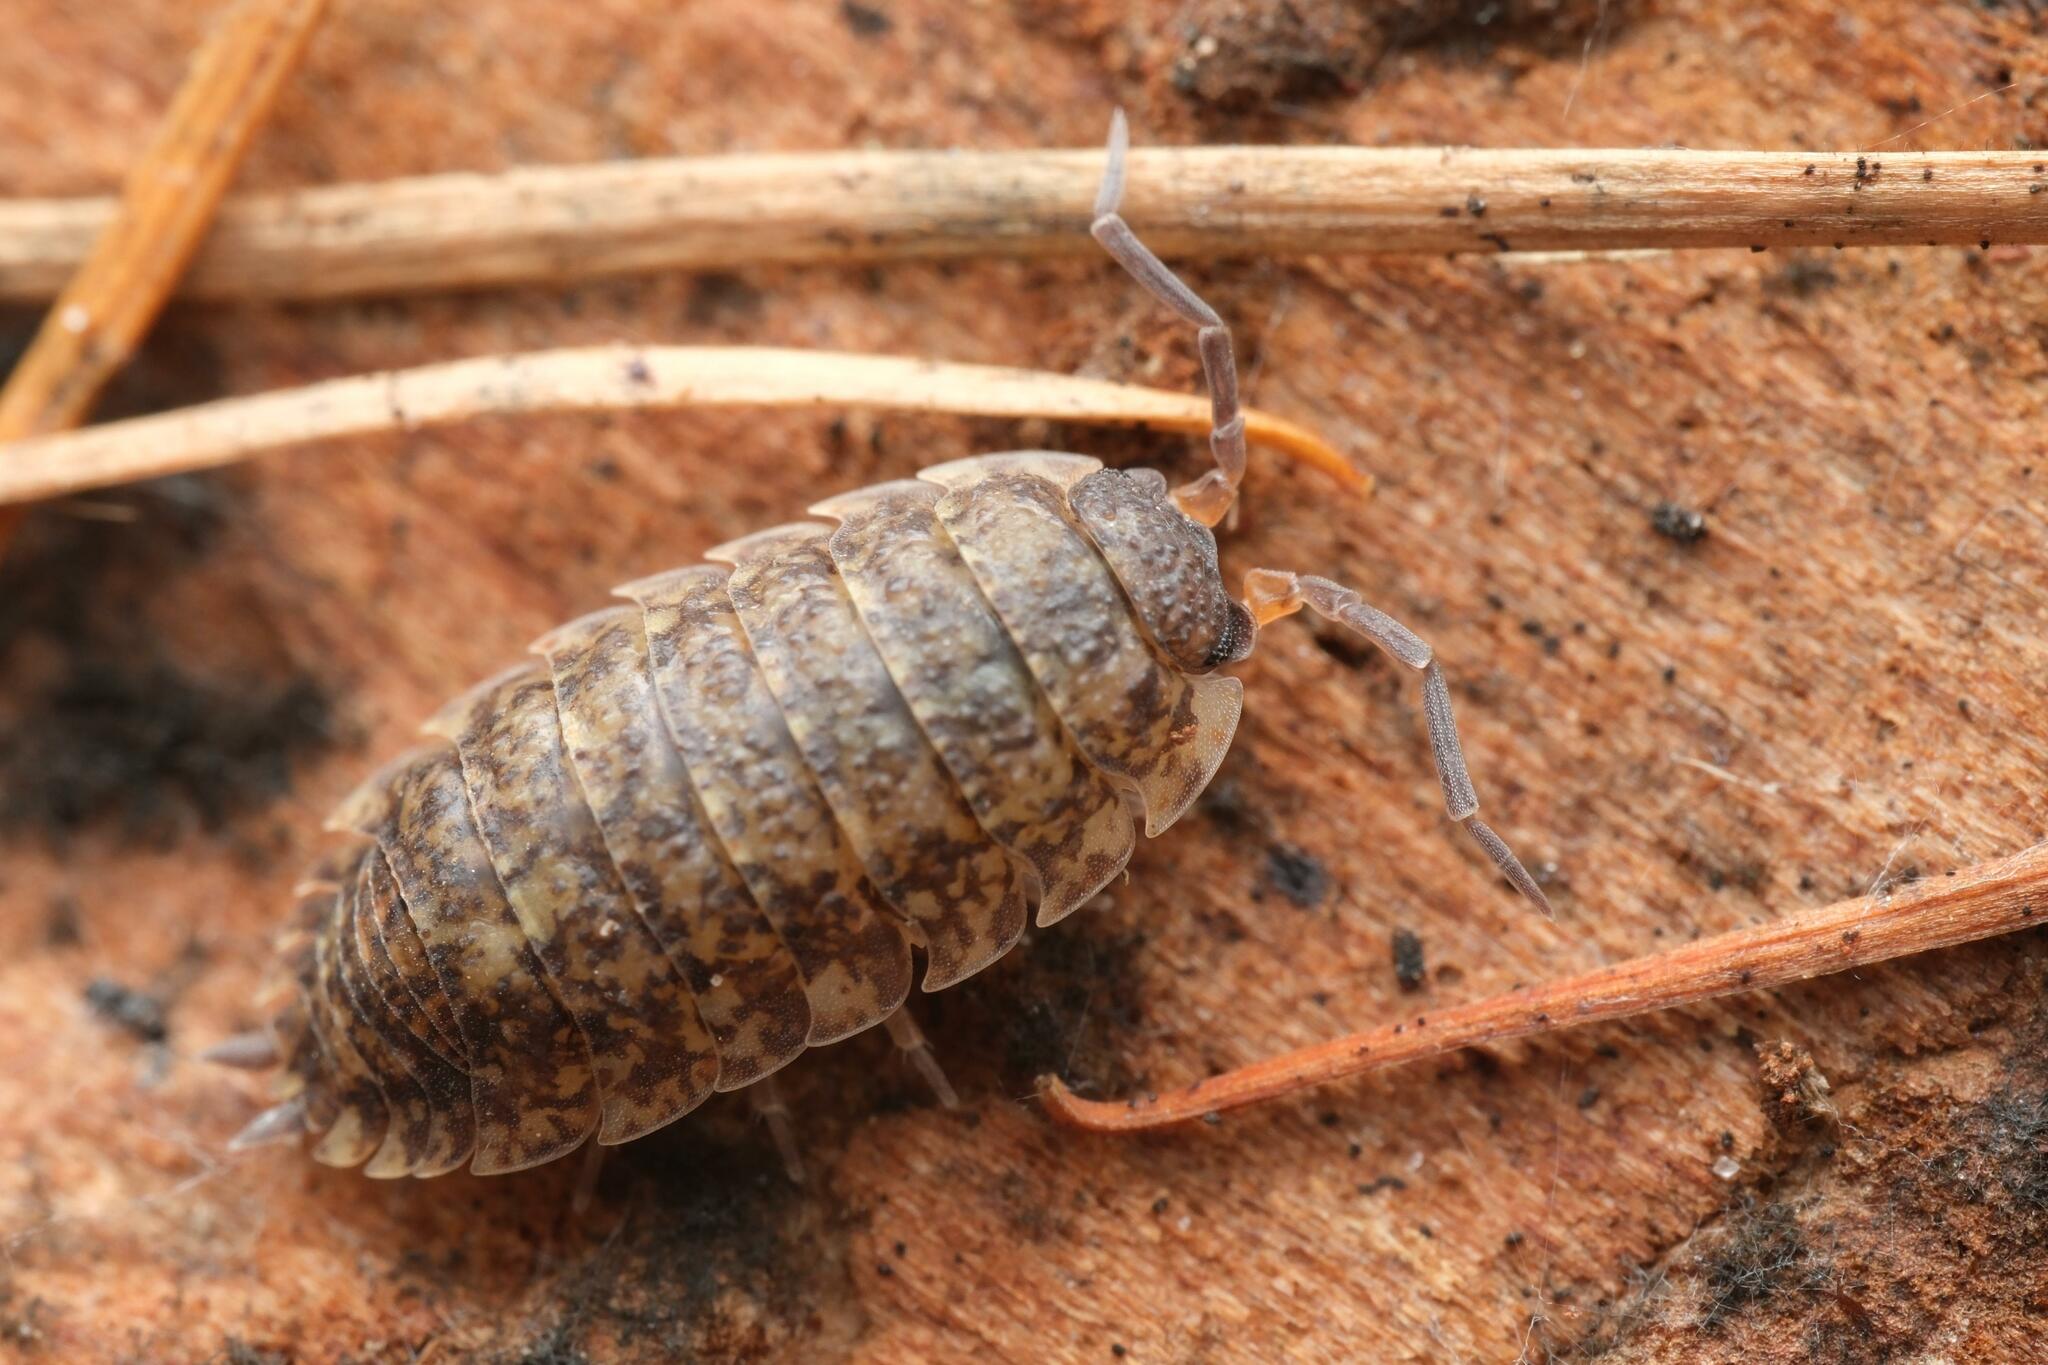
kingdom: Animalia
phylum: Arthropoda
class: Malacostraca
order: Isopoda
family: Porcellionidae
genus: Porcellio
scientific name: Porcellio scaber
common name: Common rough woodlouse
